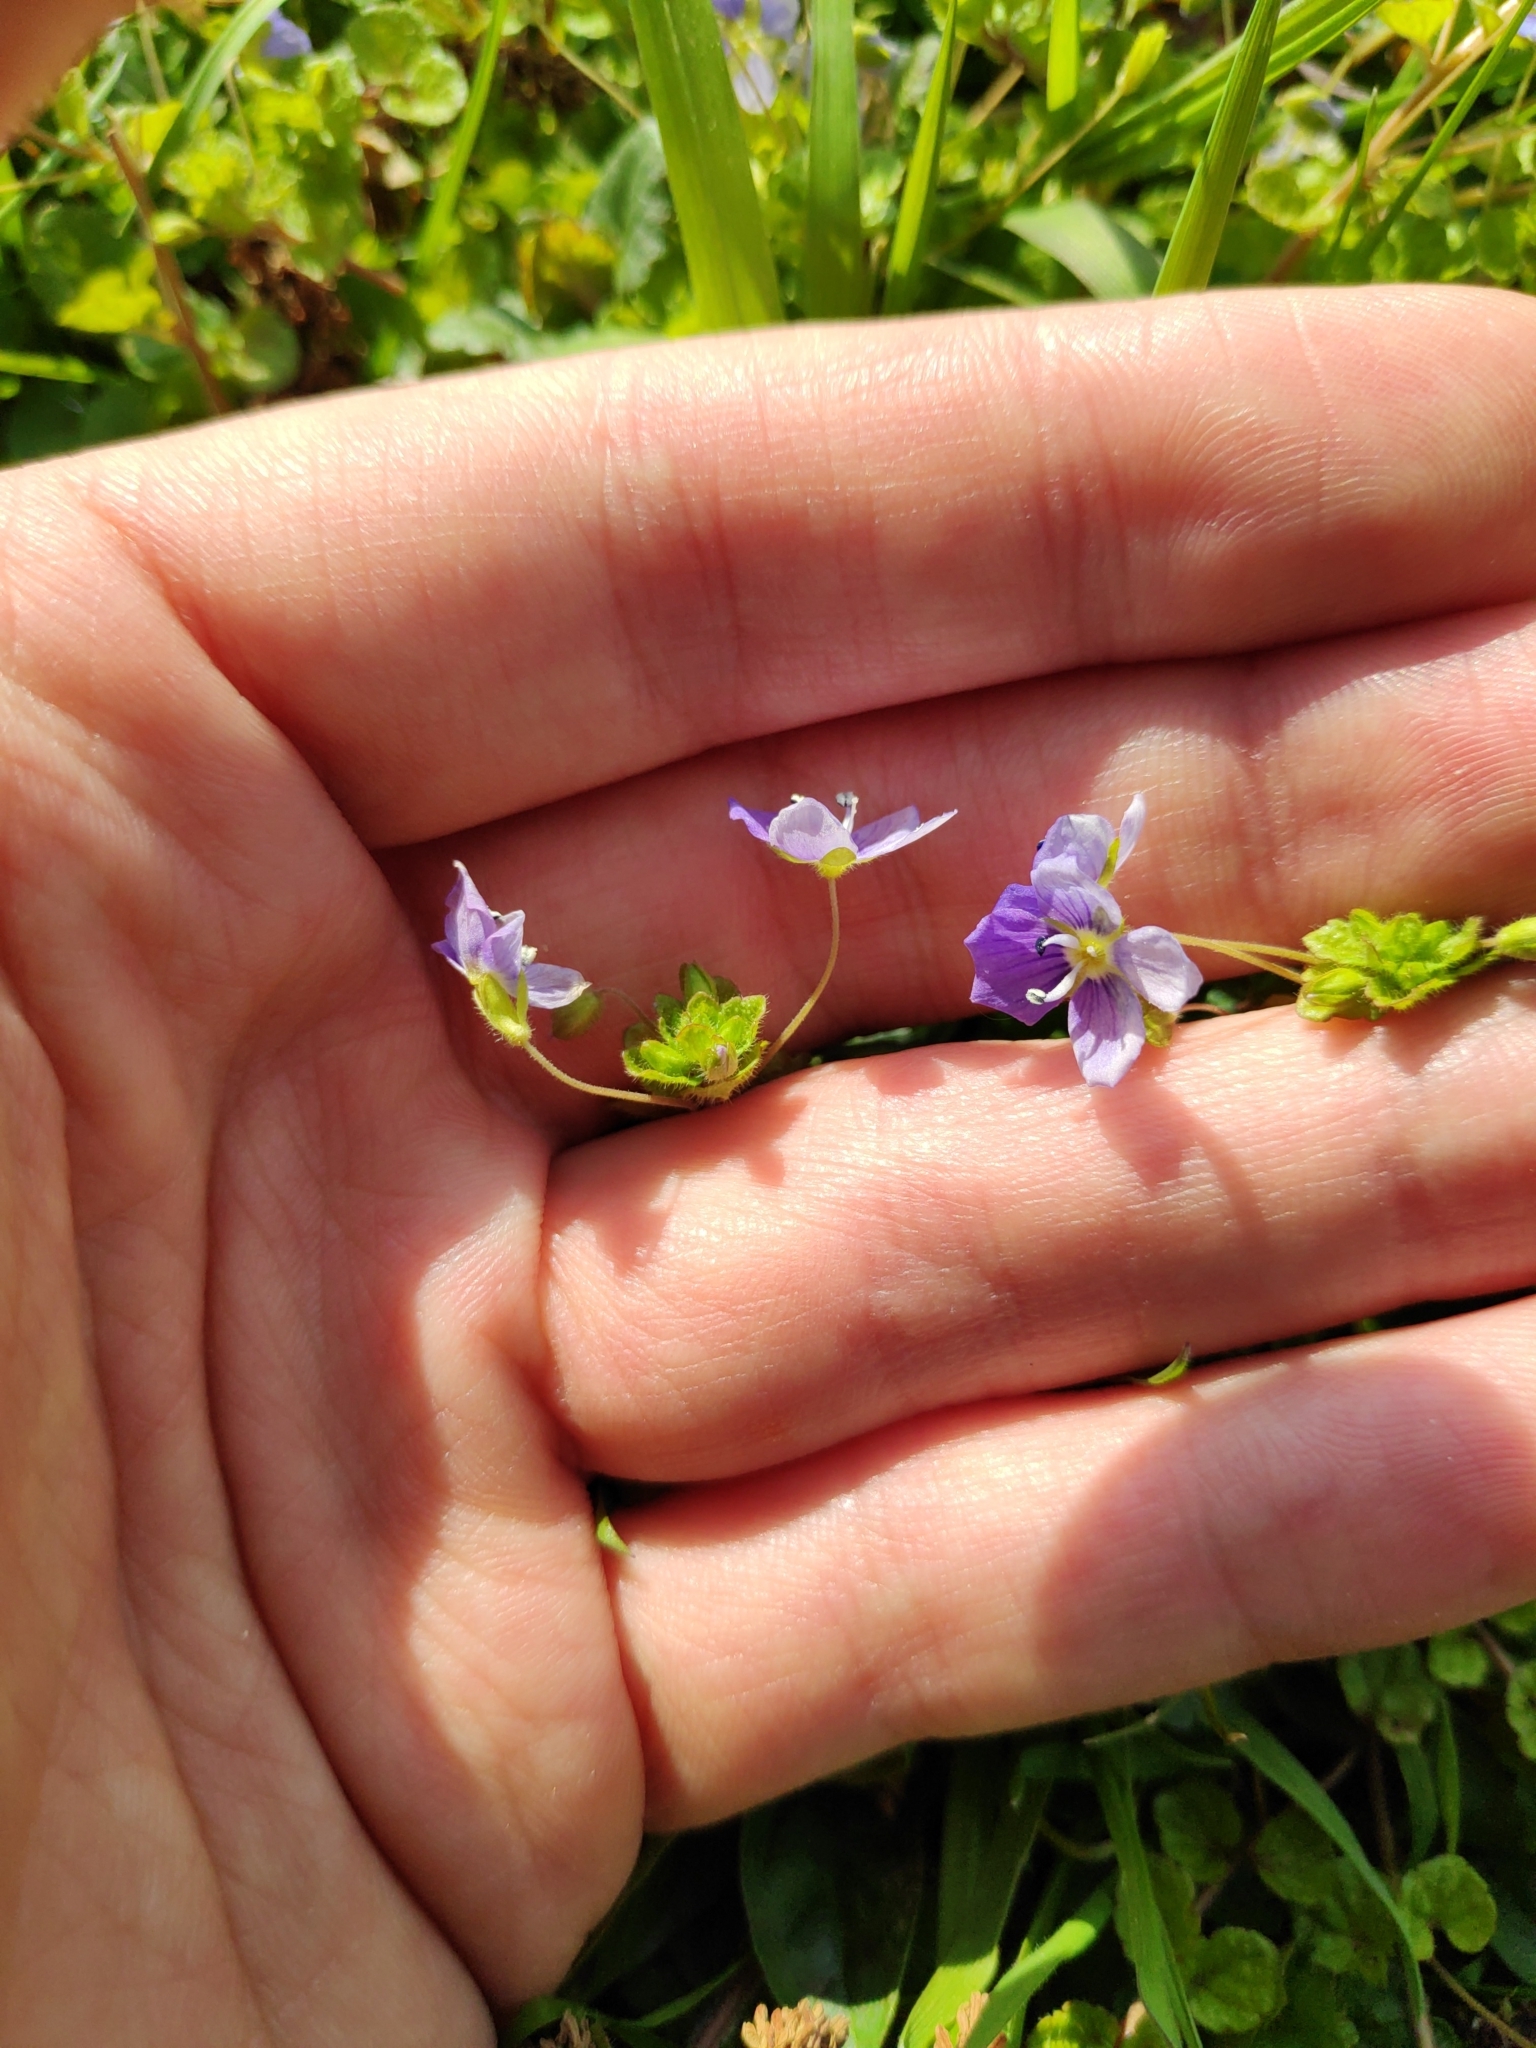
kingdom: Plantae
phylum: Tracheophyta
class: Magnoliopsida
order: Lamiales
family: Plantaginaceae
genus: Veronica
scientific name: Veronica filiformis
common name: Slender speedwell
